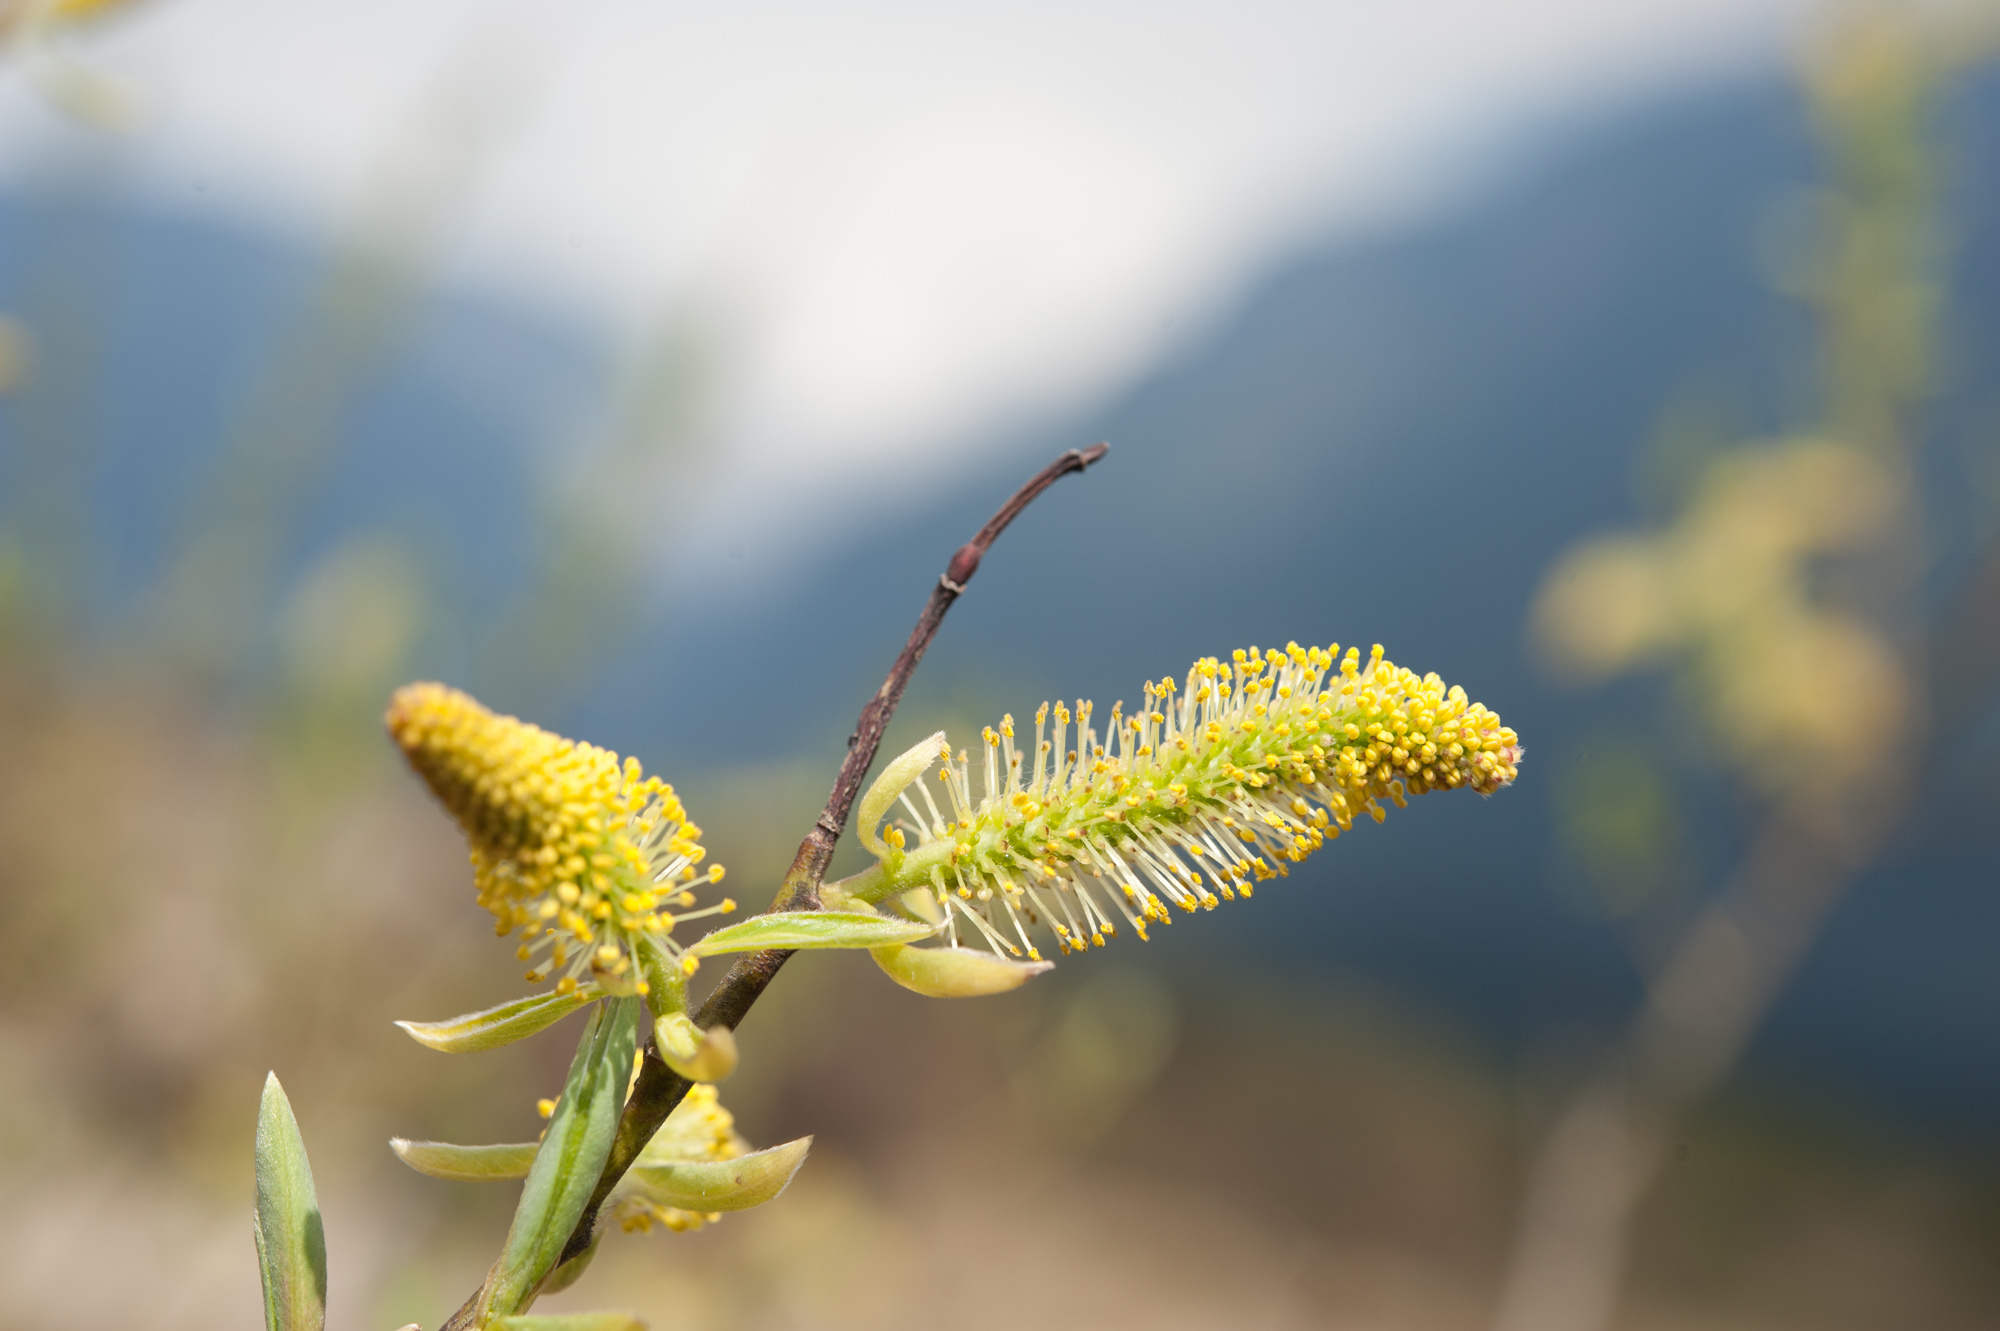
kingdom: Plantae
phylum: Tracheophyta
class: Magnoliopsida
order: Malpighiales
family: Salicaceae
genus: Salix
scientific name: Salix tagawana
